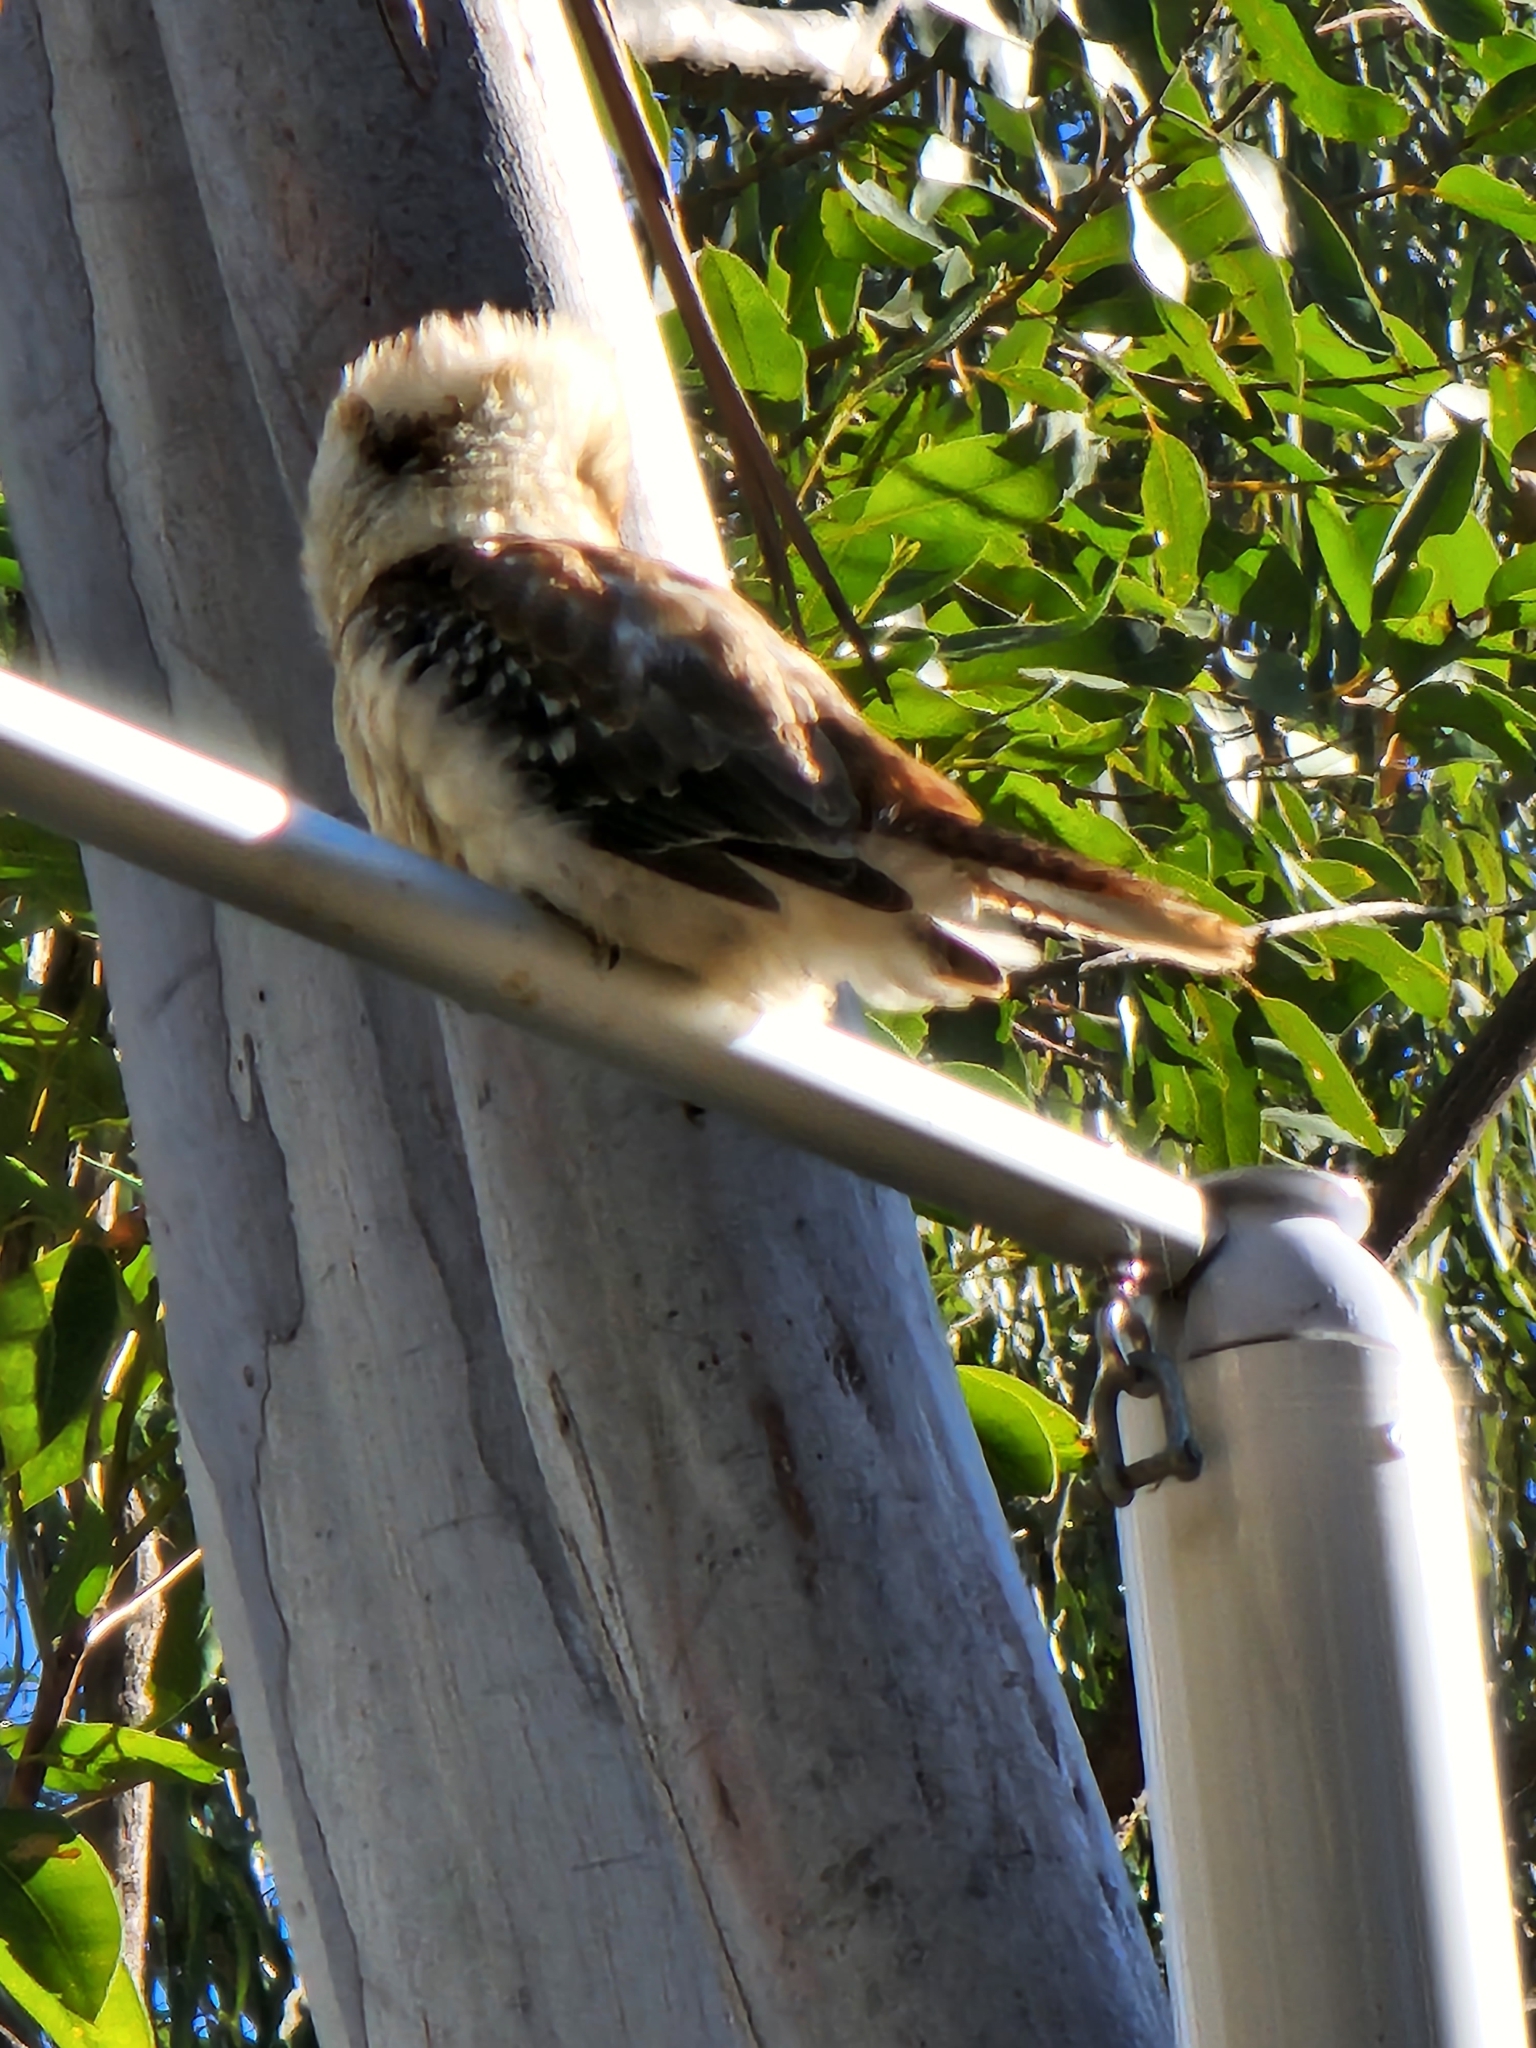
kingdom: Animalia
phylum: Chordata
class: Aves
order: Coraciiformes
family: Alcedinidae
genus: Dacelo
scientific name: Dacelo novaeguineae
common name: Laughing kookaburra
